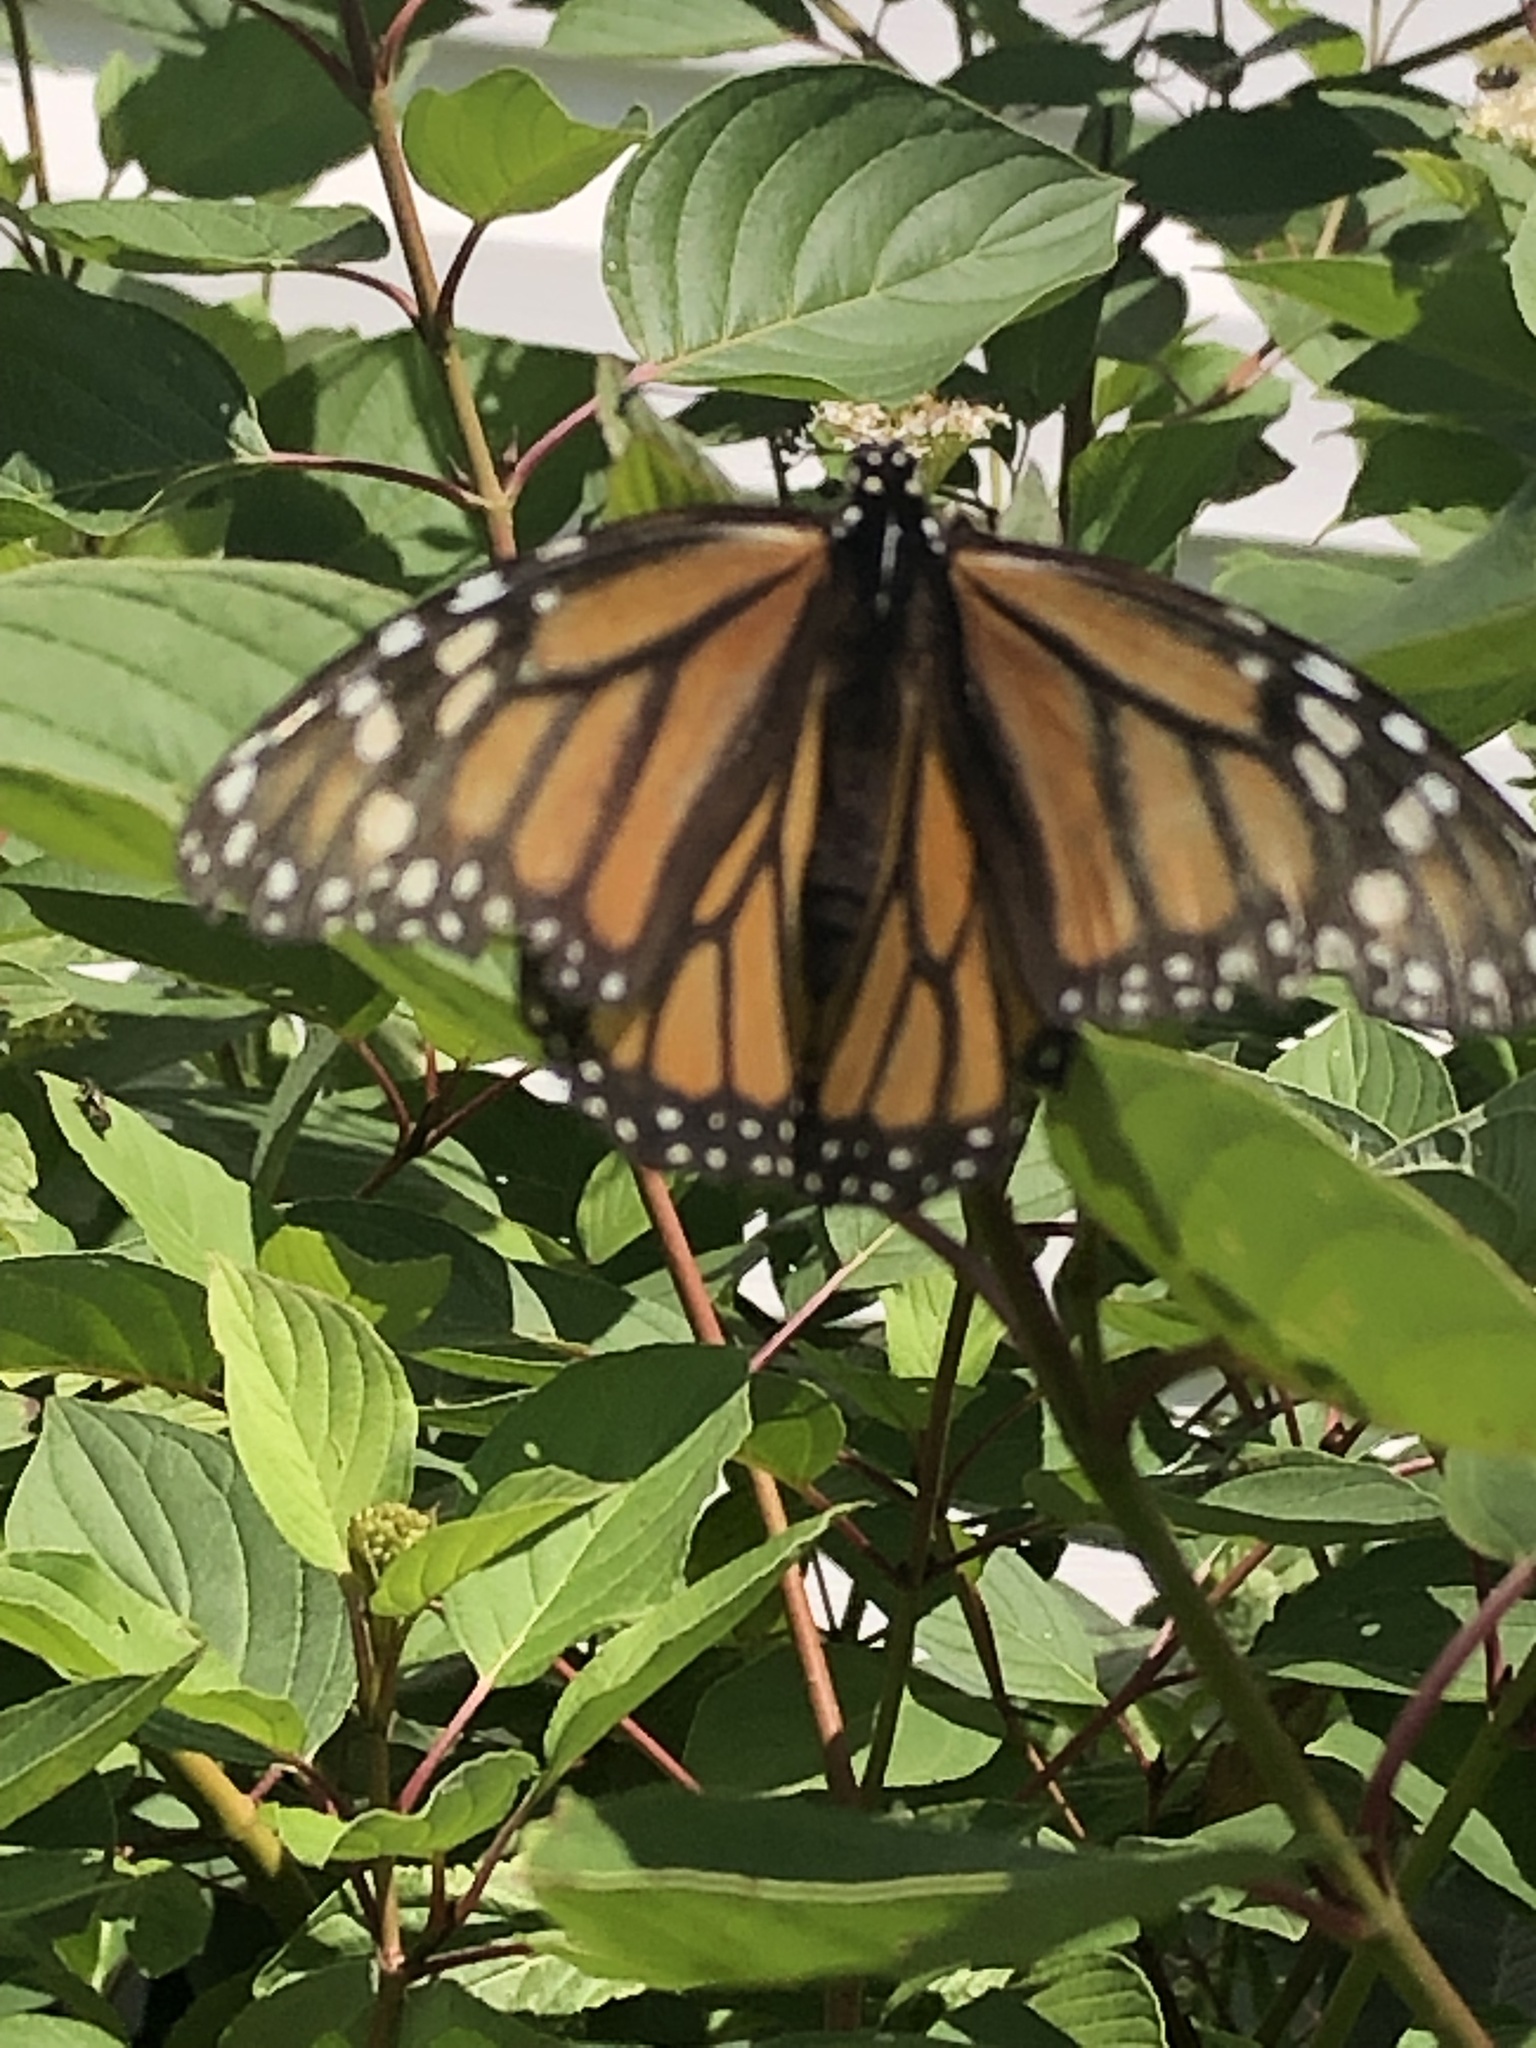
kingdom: Animalia
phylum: Arthropoda
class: Insecta
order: Lepidoptera
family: Nymphalidae
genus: Danaus
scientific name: Danaus plexippus
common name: Monarch
